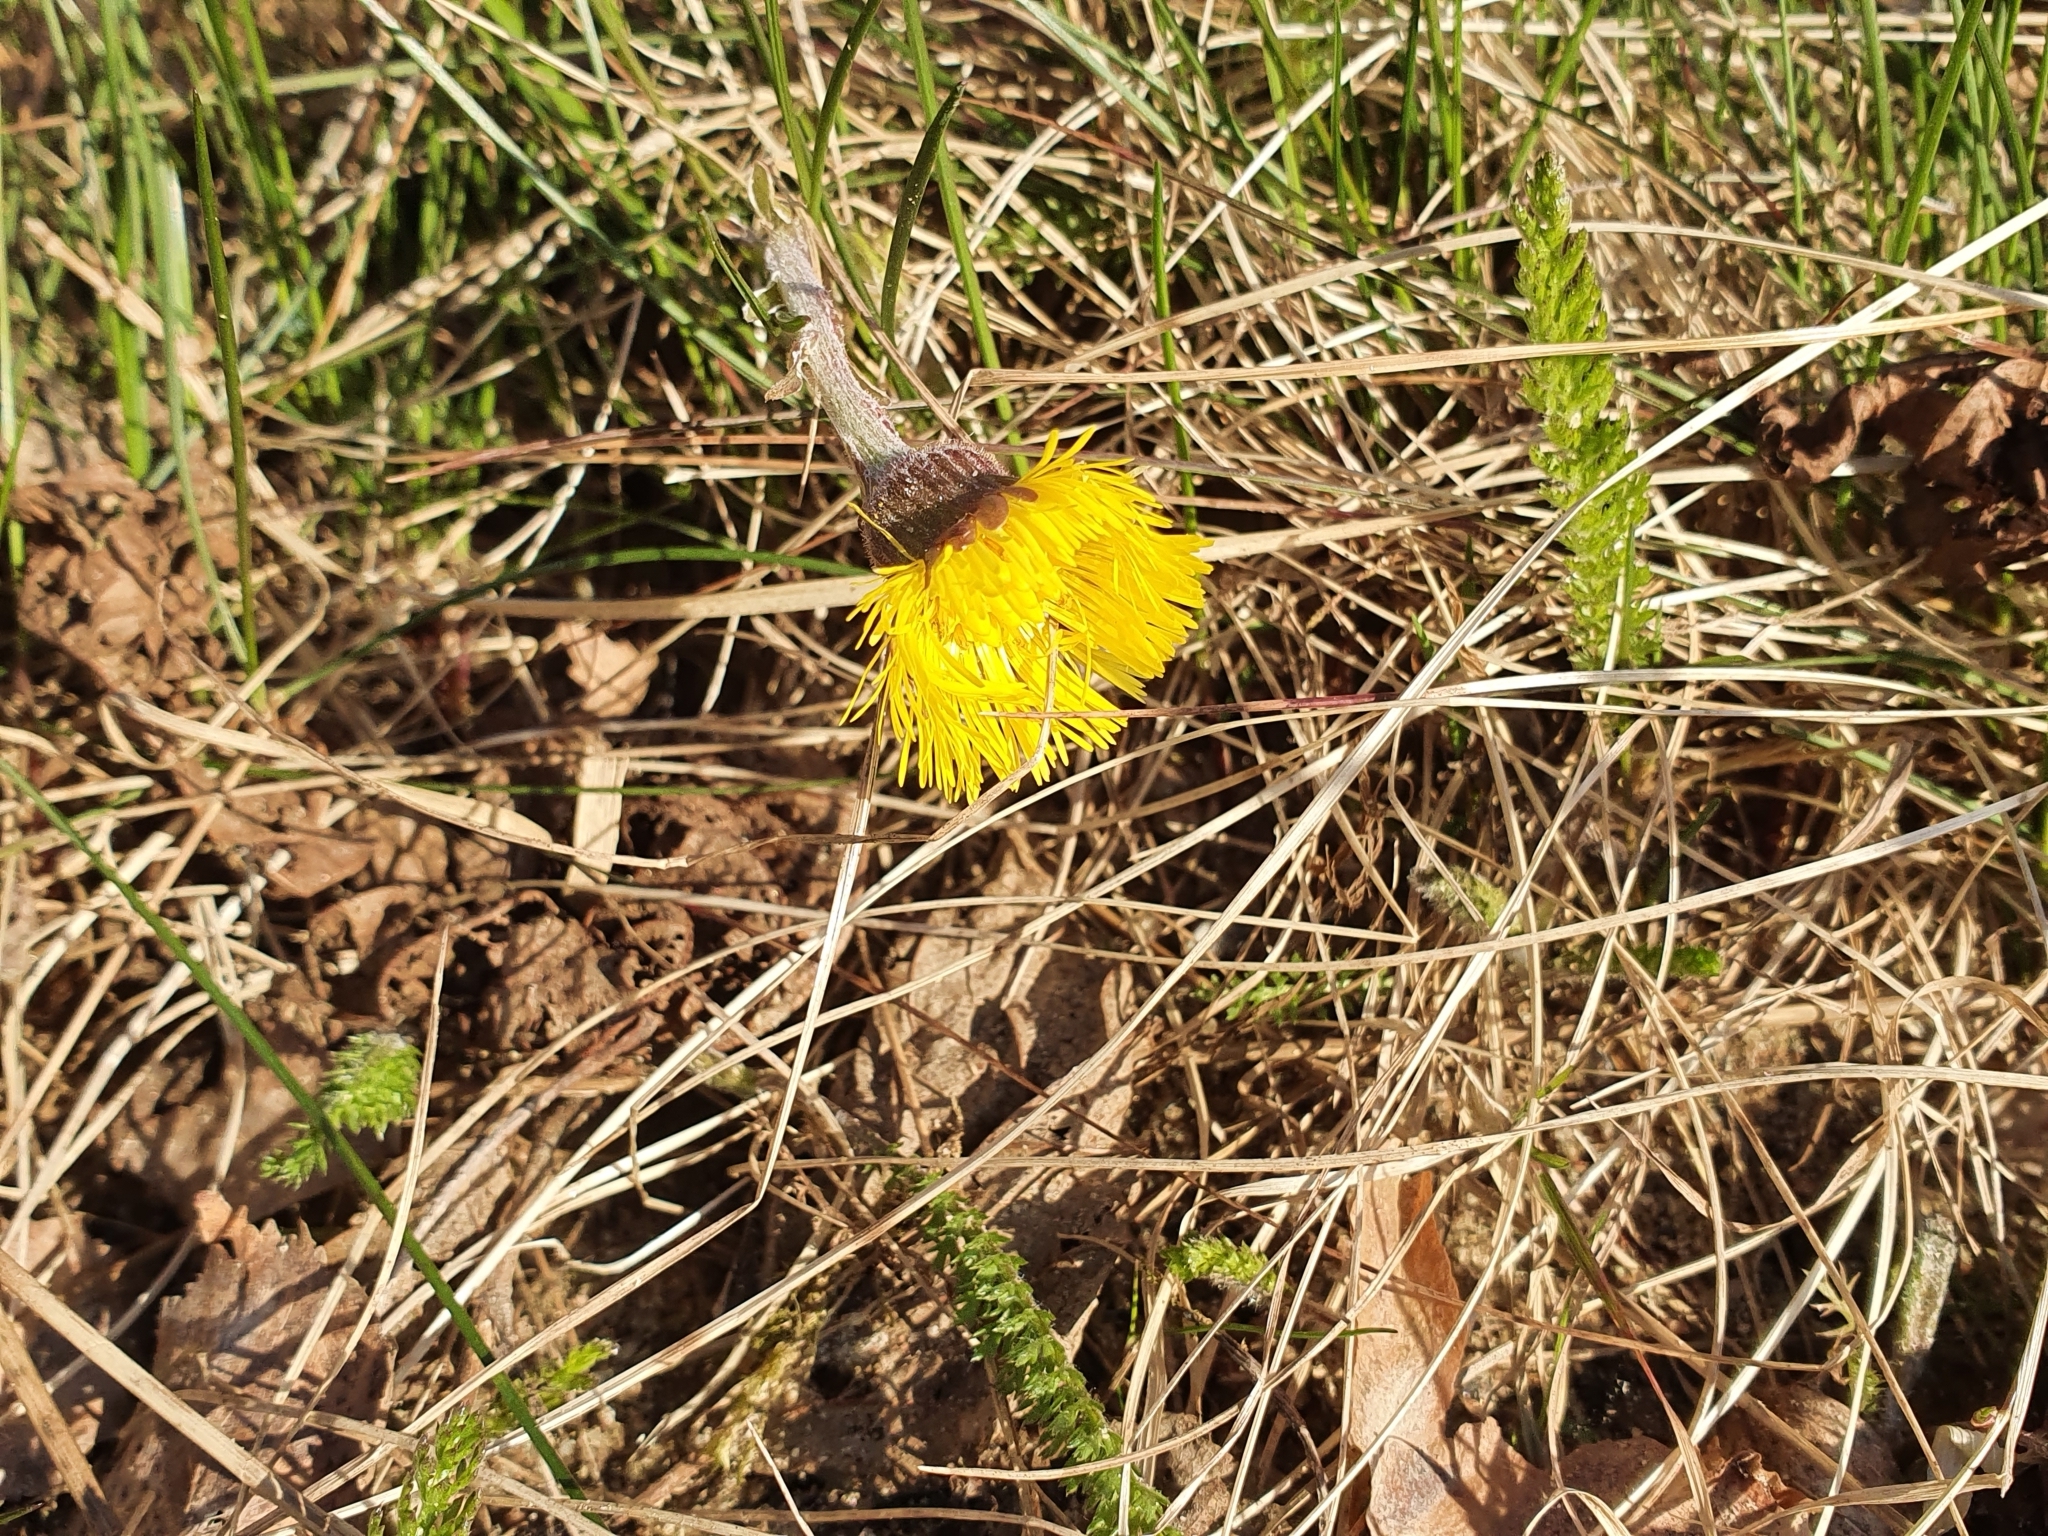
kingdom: Plantae
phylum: Tracheophyta
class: Magnoliopsida
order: Asterales
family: Asteraceae
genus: Tussilago
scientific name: Tussilago farfara
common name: Coltsfoot
